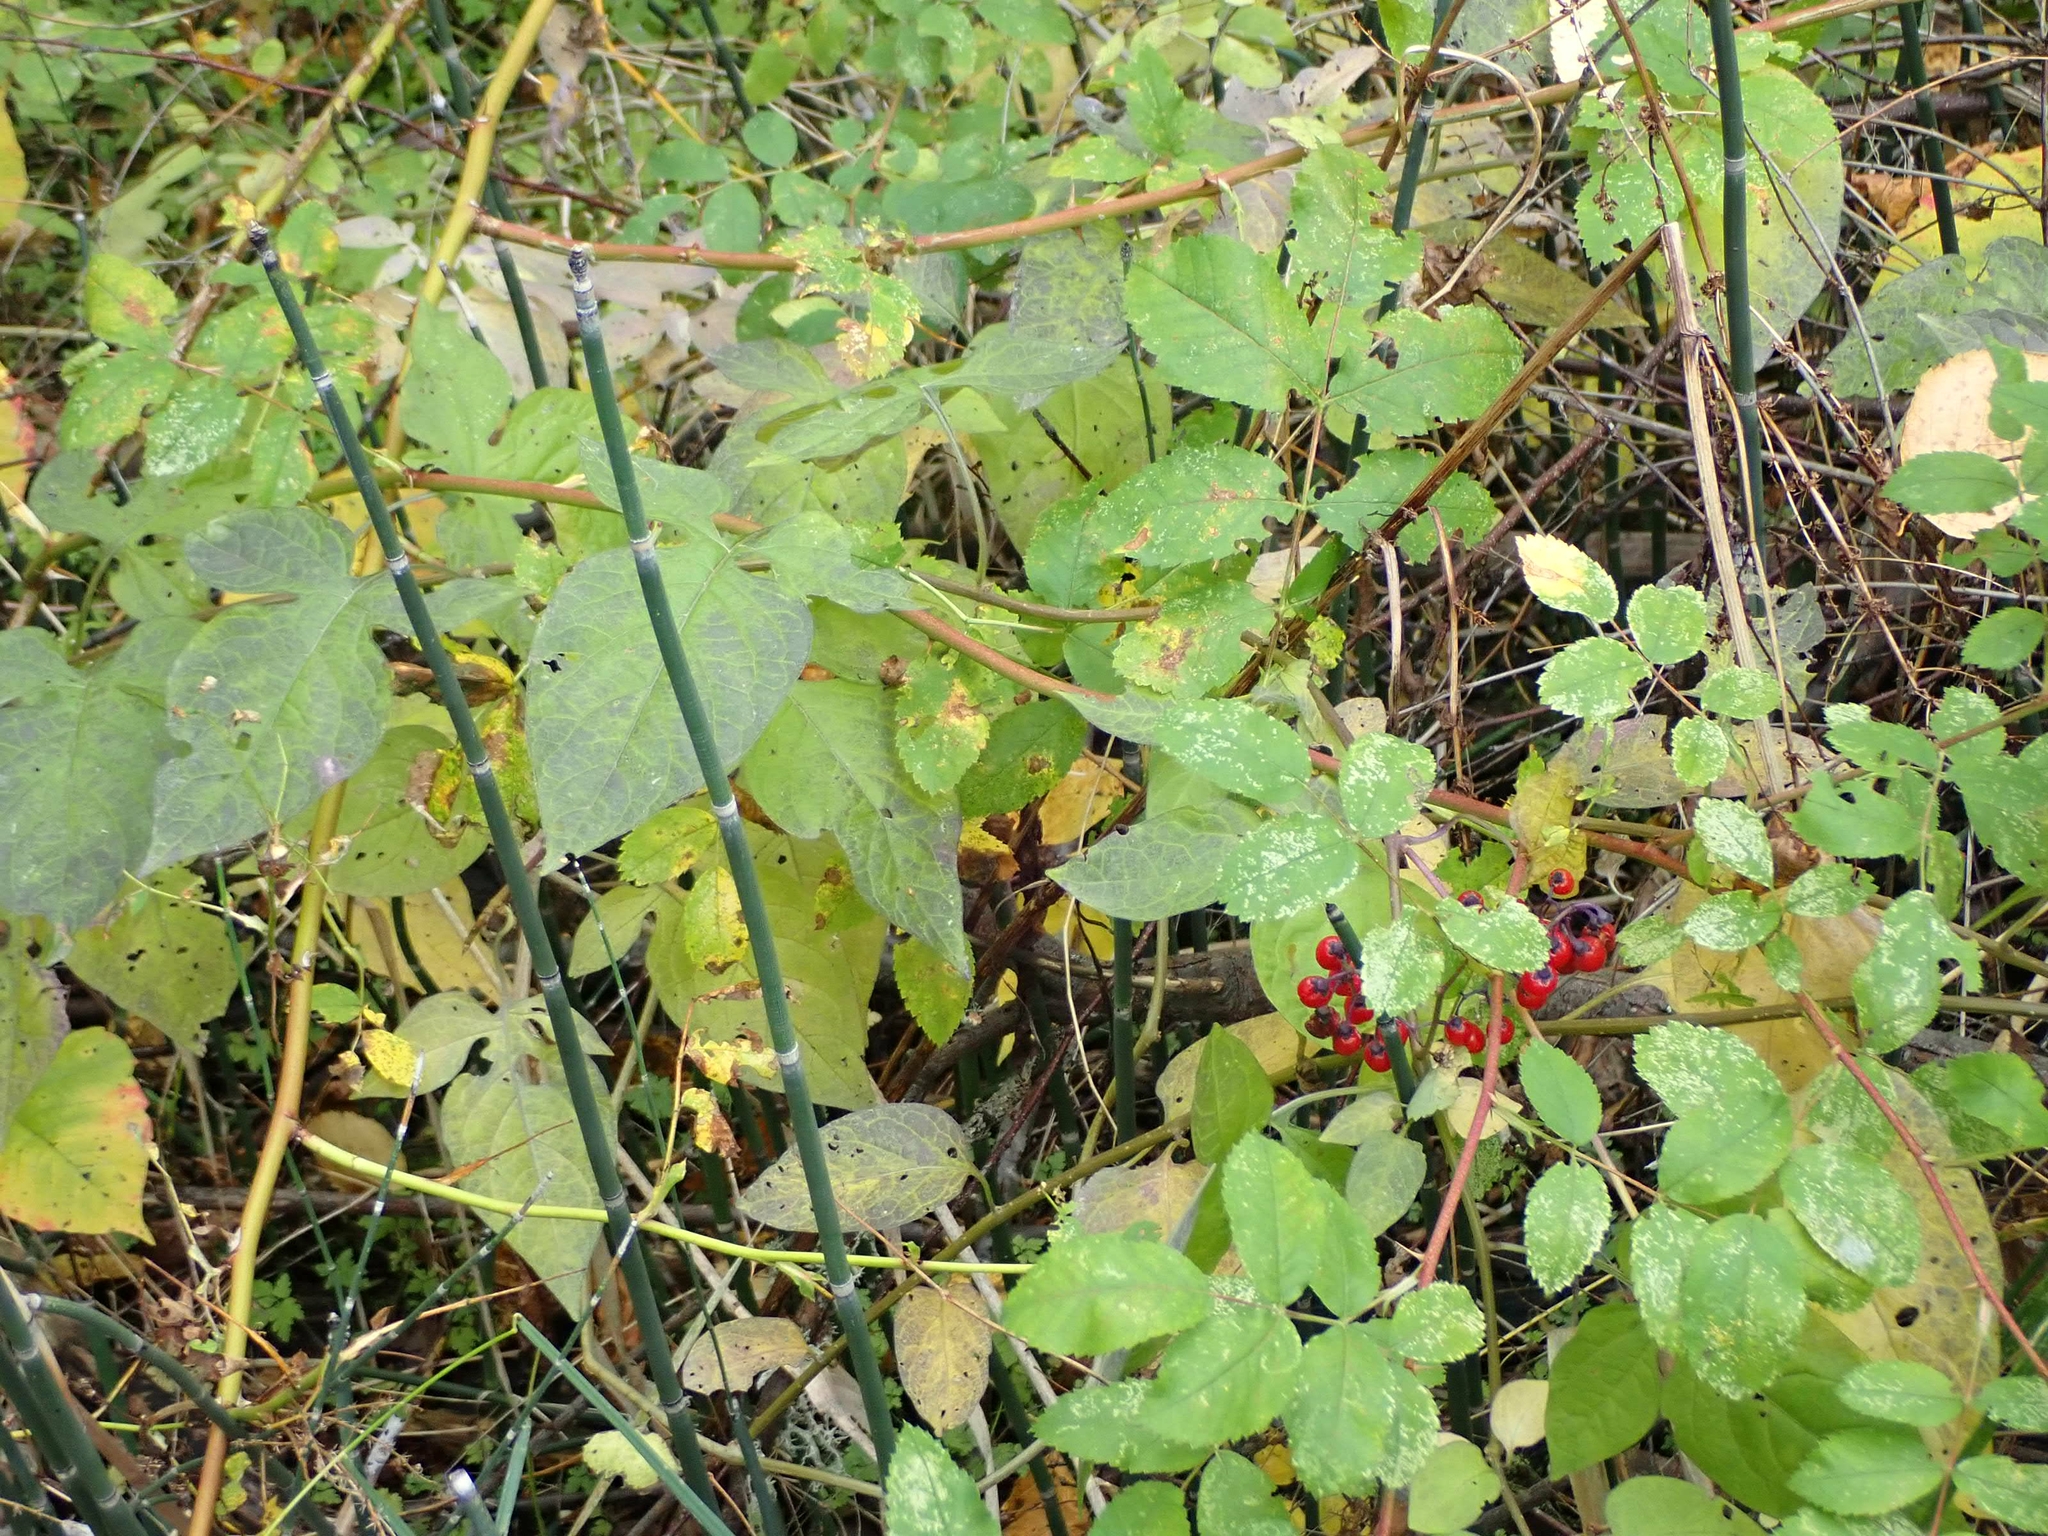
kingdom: Plantae
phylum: Tracheophyta
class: Magnoliopsida
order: Solanales
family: Solanaceae
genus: Solanum
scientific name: Solanum dulcamara
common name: Climbing nightshade
